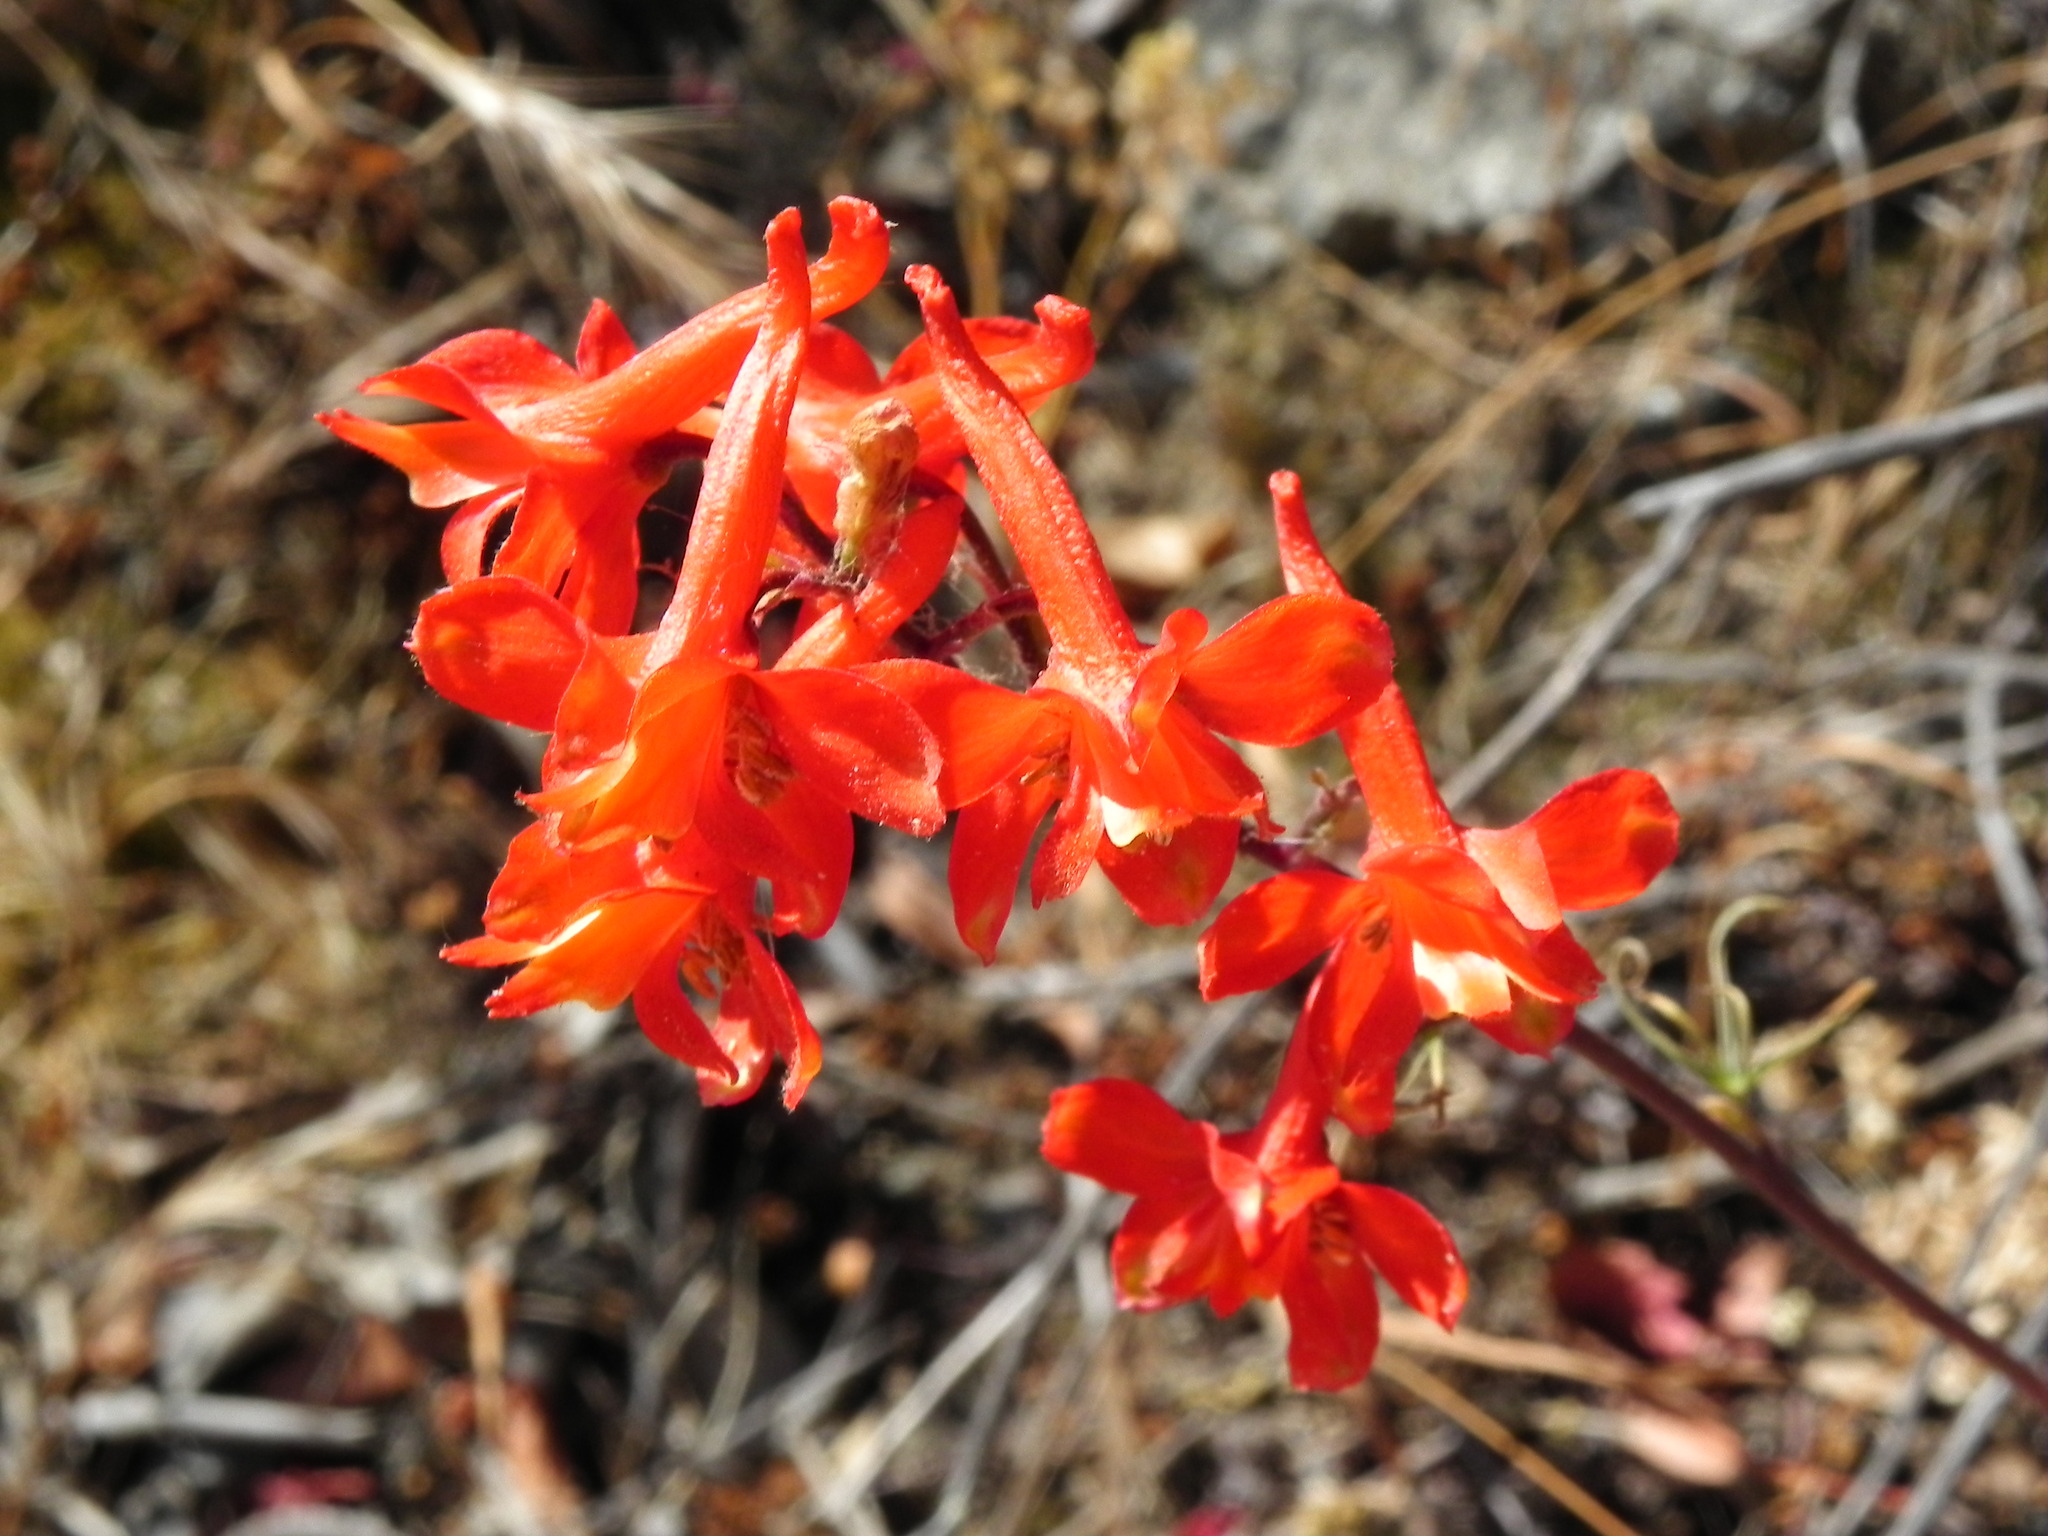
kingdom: Plantae
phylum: Tracheophyta
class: Magnoliopsida
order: Ranunculales
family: Ranunculaceae
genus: Delphinium
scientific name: Delphinium cardinale
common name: Scarlet larkspur
